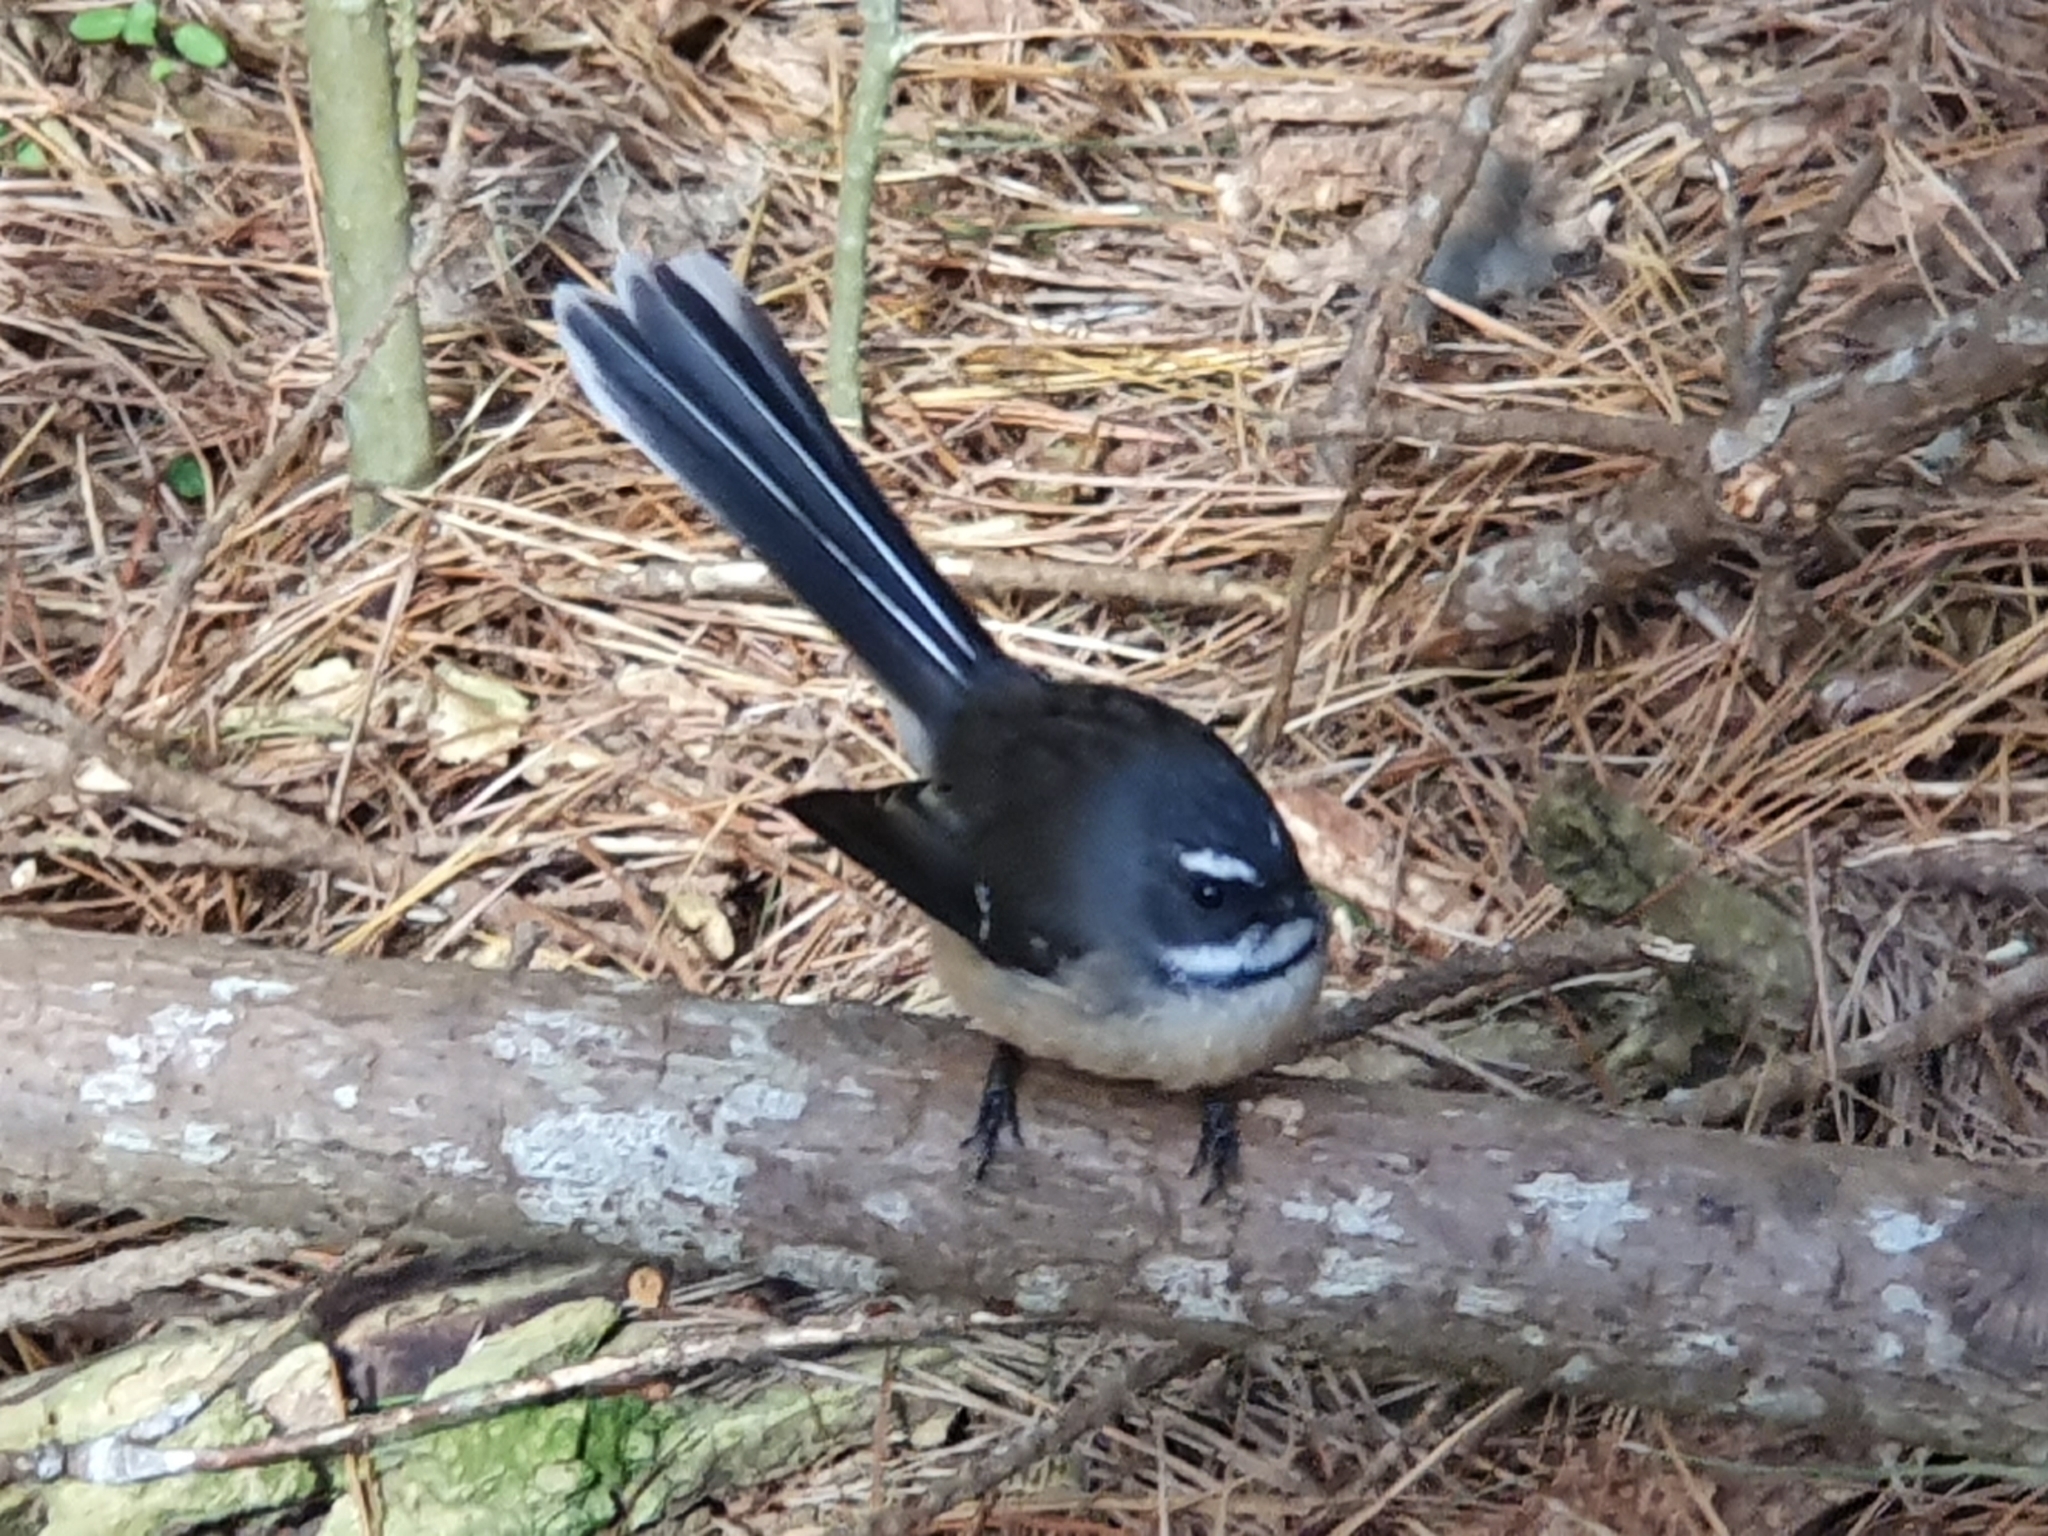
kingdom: Animalia
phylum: Chordata
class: Aves
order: Passeriformes
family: Rhipiduridae
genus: Rhipidura
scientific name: Rhipidura fuliginosa
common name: New zealand fantail
